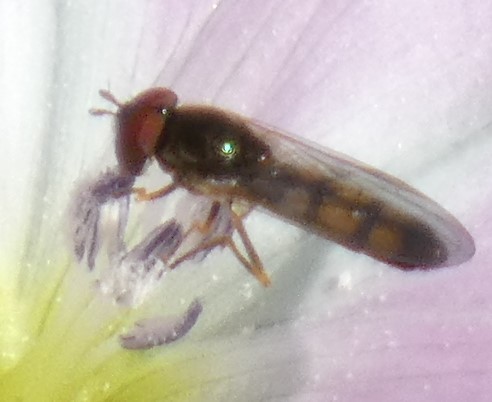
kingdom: Animalia
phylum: Arthropoda
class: Insecta
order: Diptera
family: Syrphidae
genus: Melanostoma
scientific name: Melanostoma mellina
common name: Hover fly
